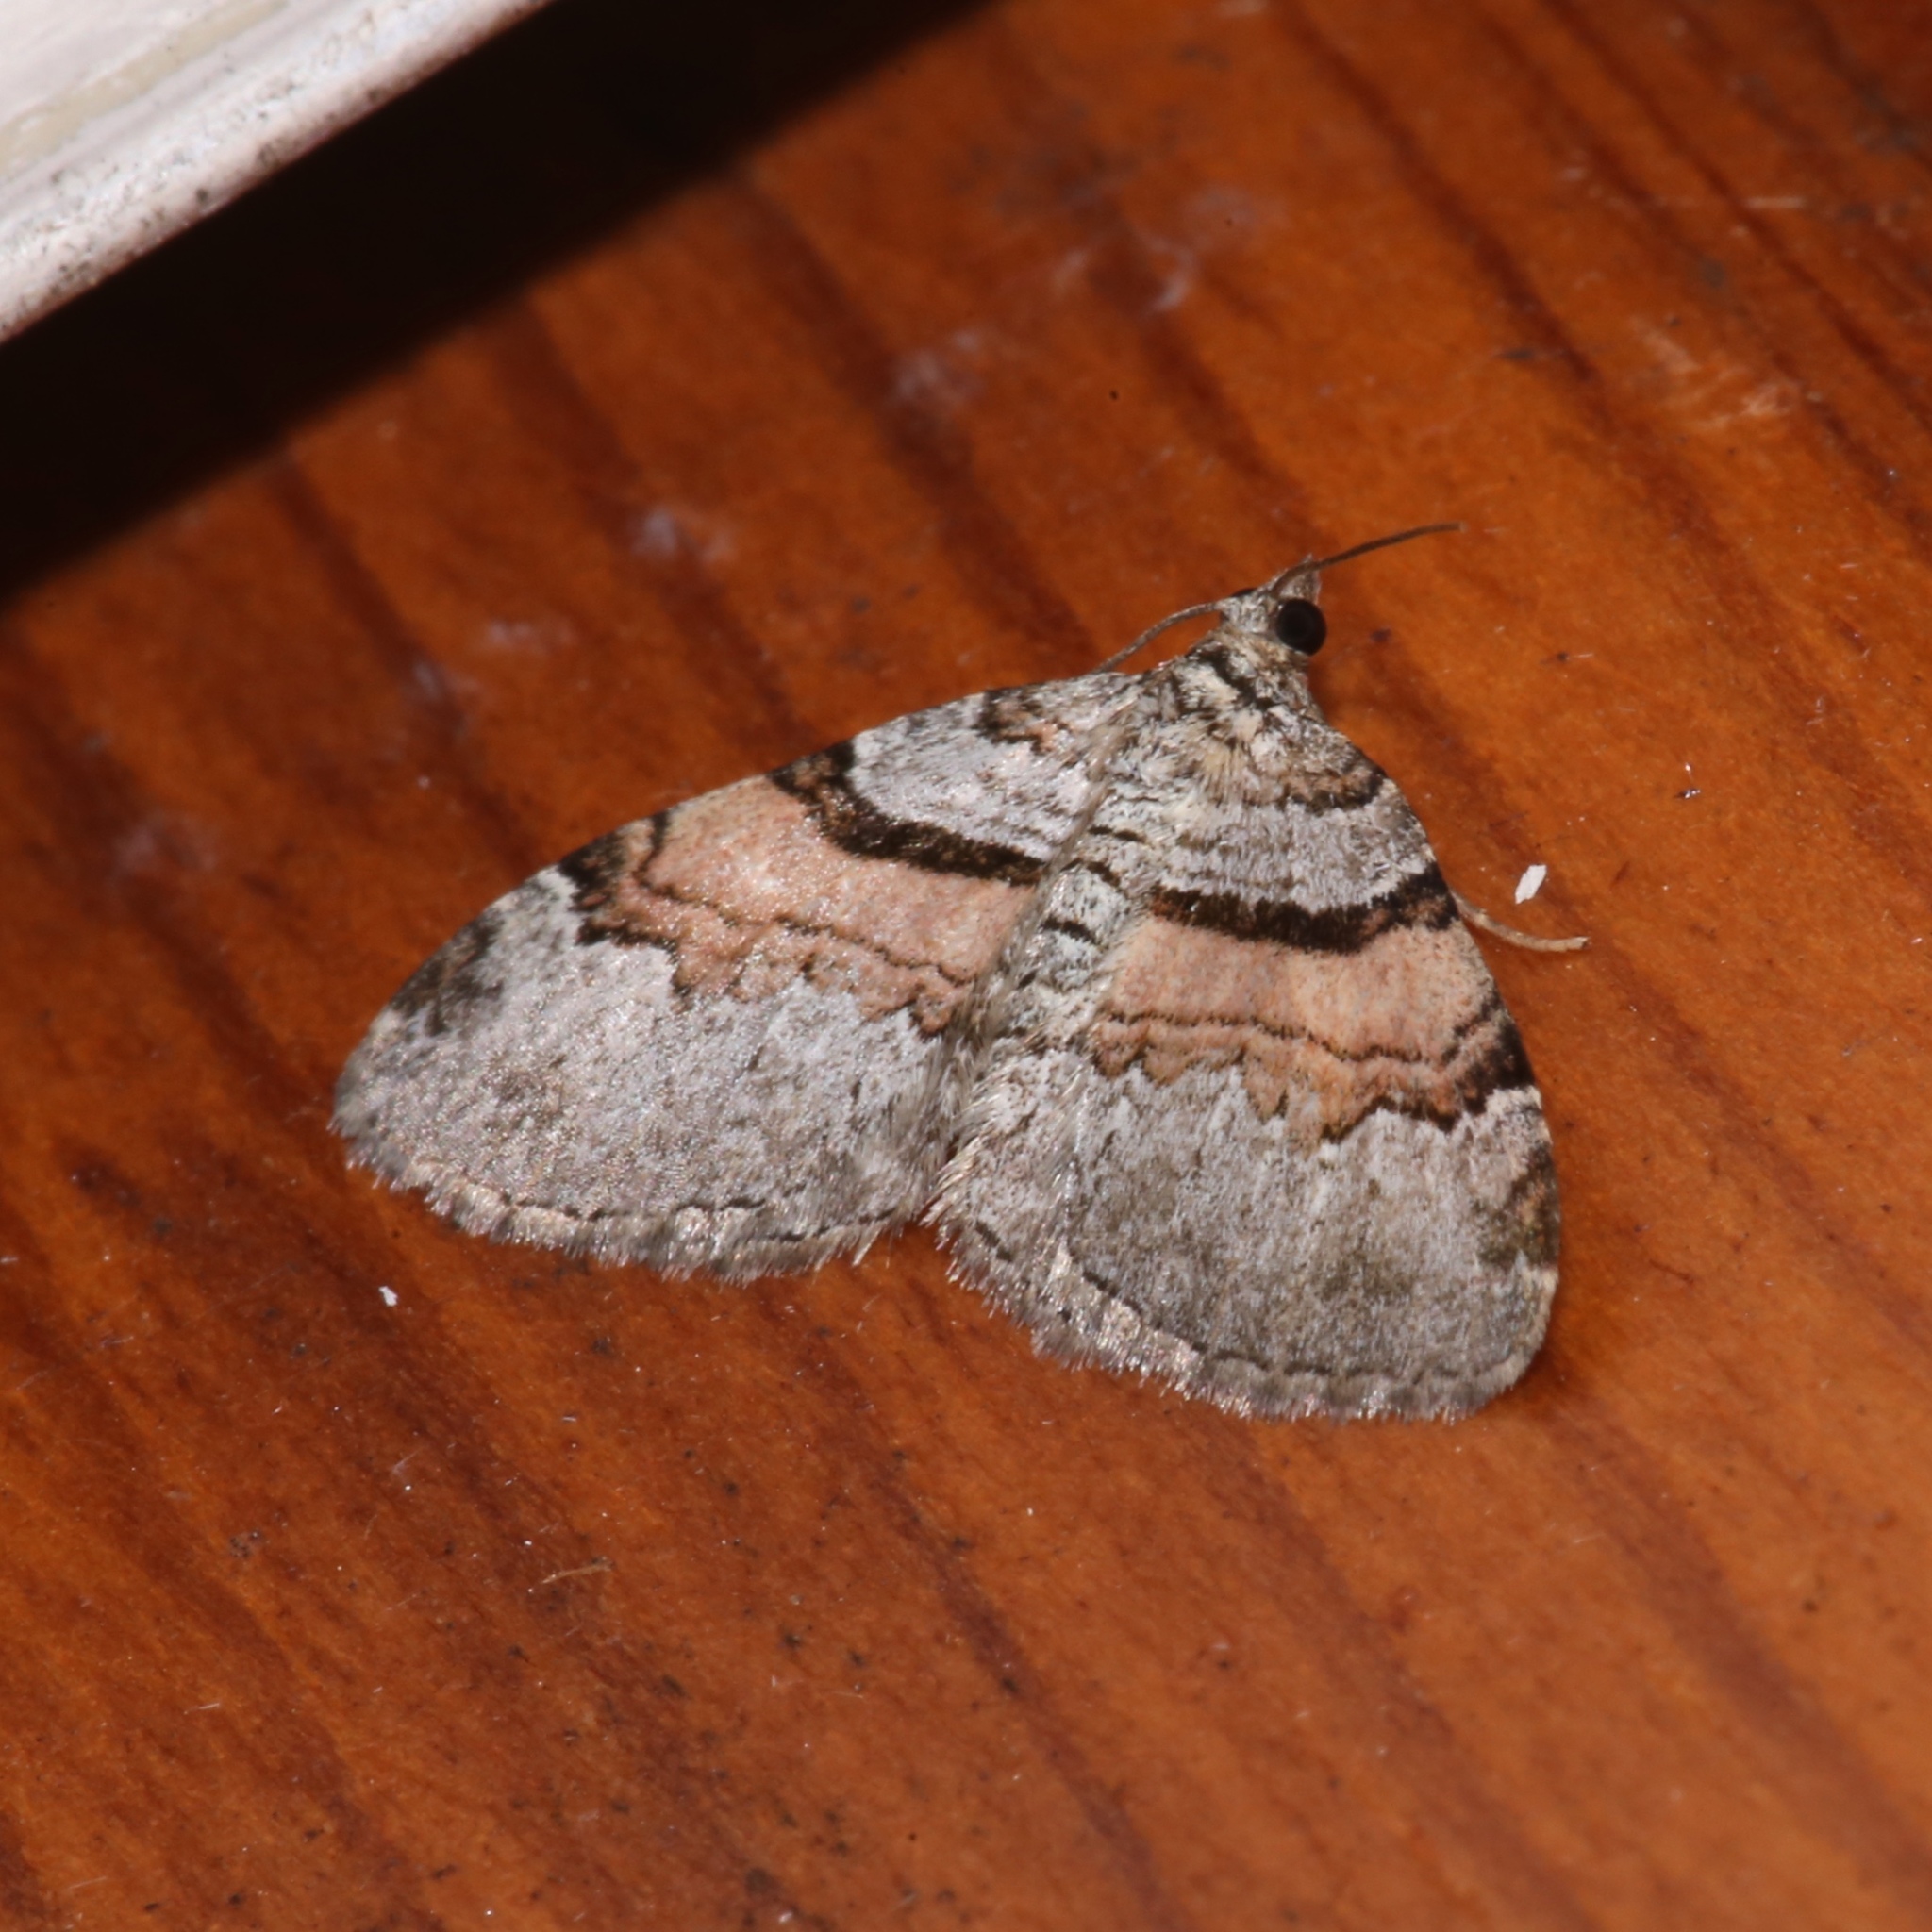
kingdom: Animalia
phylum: Arthropoda
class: Insecta
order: Lepidoptera
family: Geometridae
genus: Xanthorhoe
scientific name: Xanthorhoe labradorensis
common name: Labrador carpet
